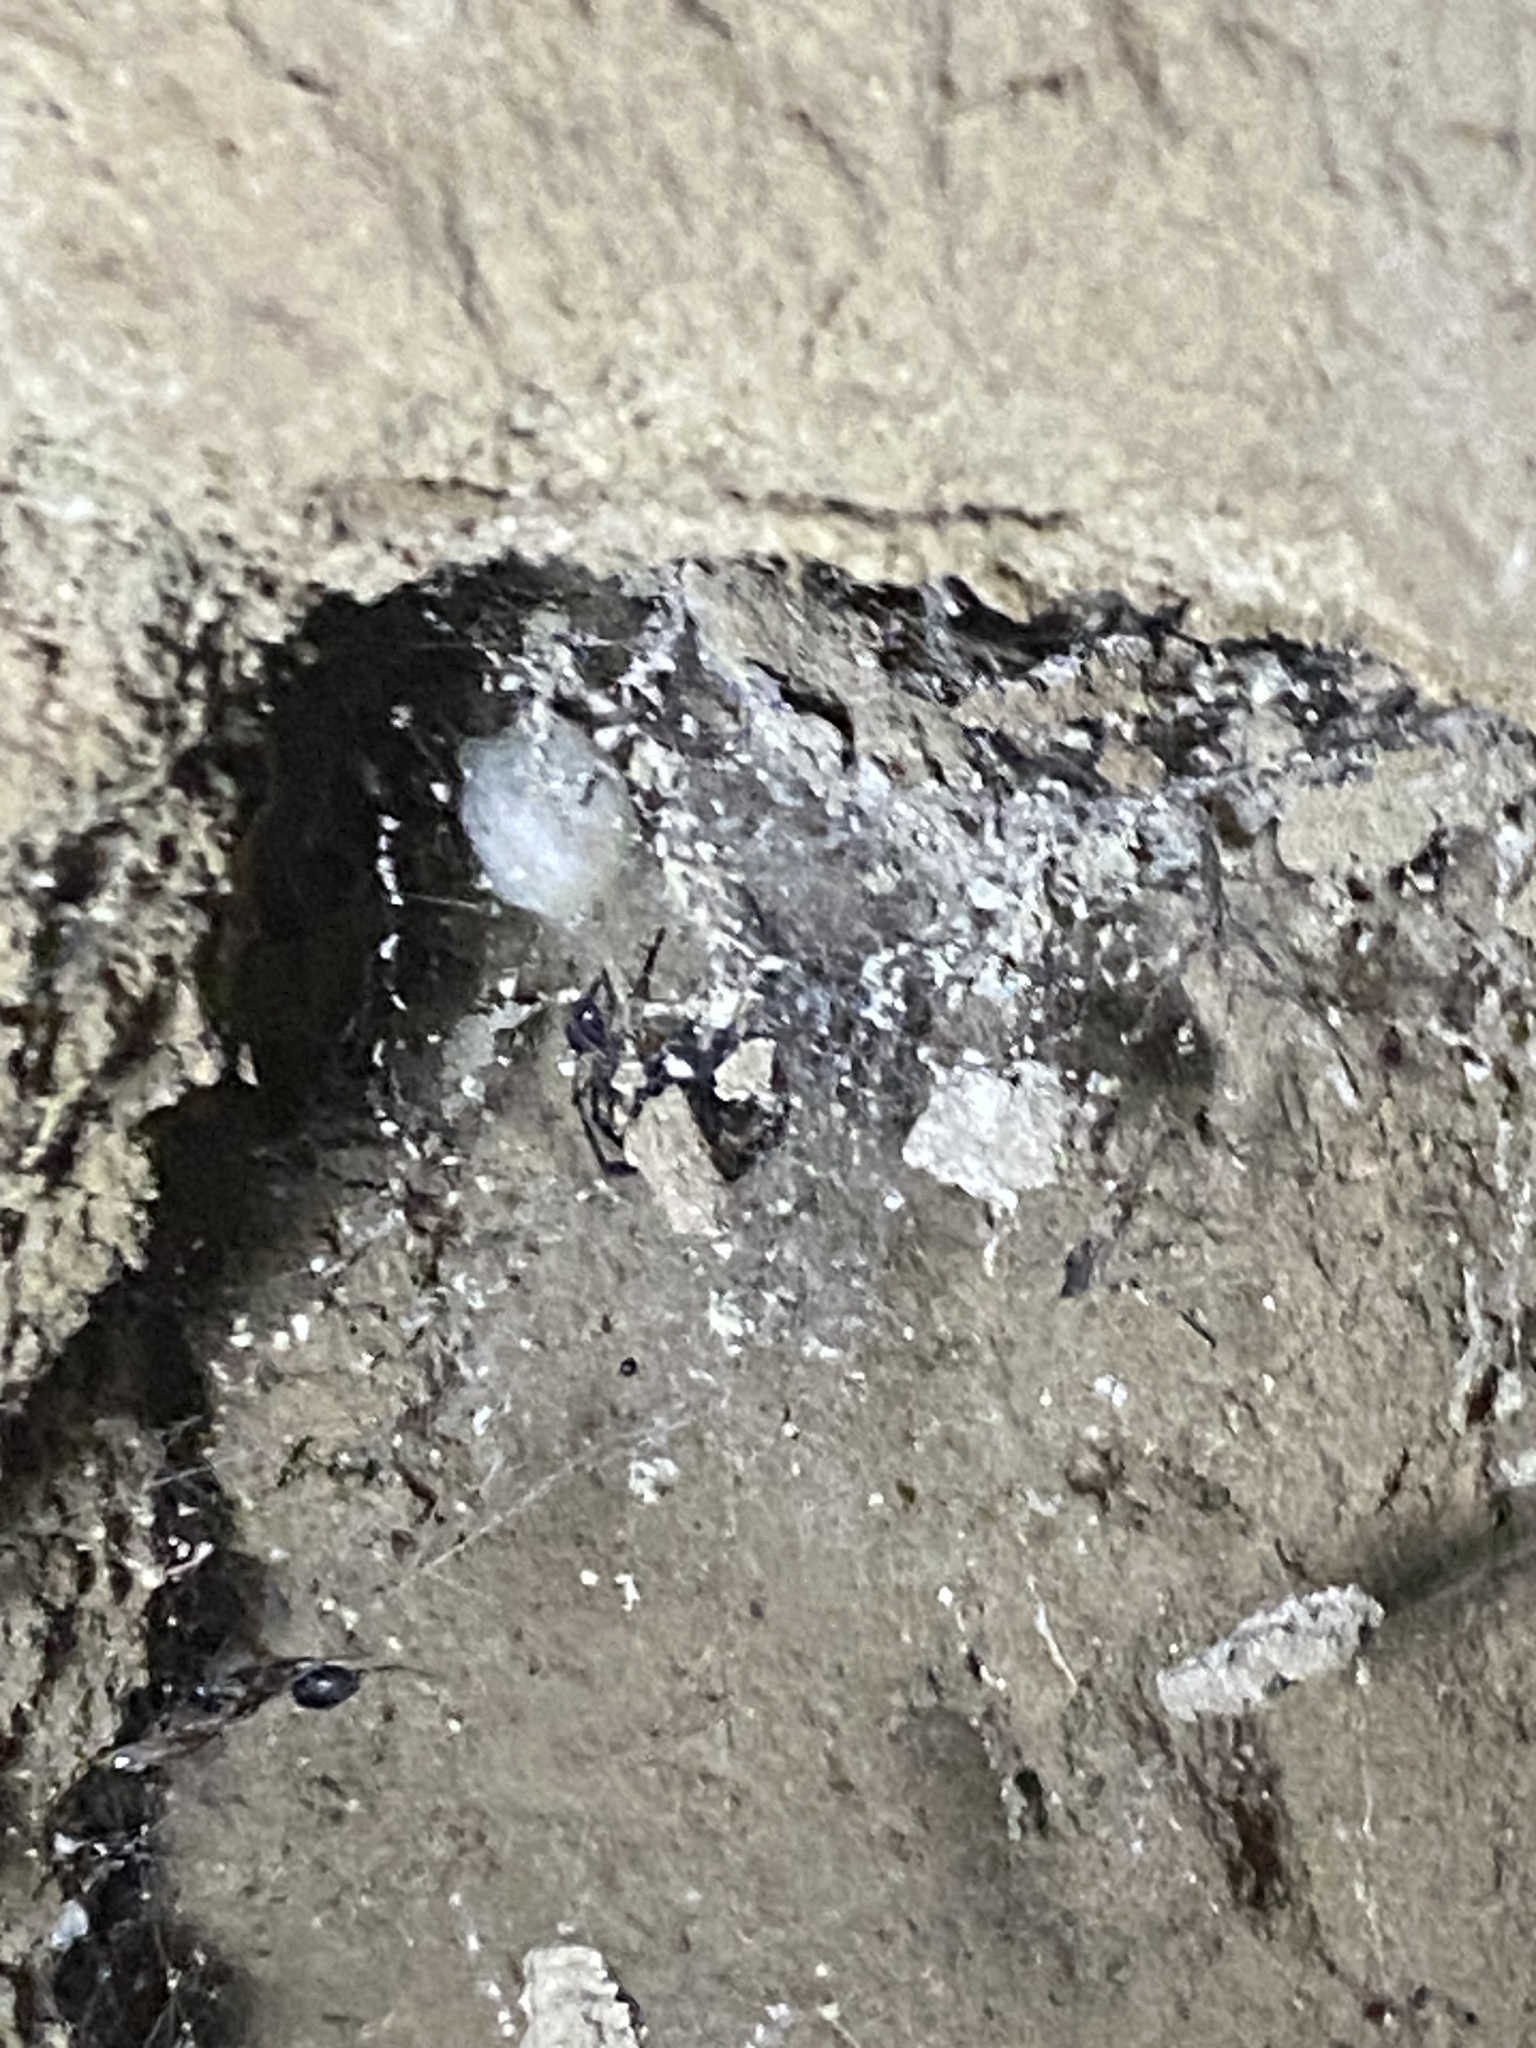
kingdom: Animalia
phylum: Arthropoda
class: Arachnida
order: Araneae
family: Theridiidae
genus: Steatoda
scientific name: Steatoda paykulliana
